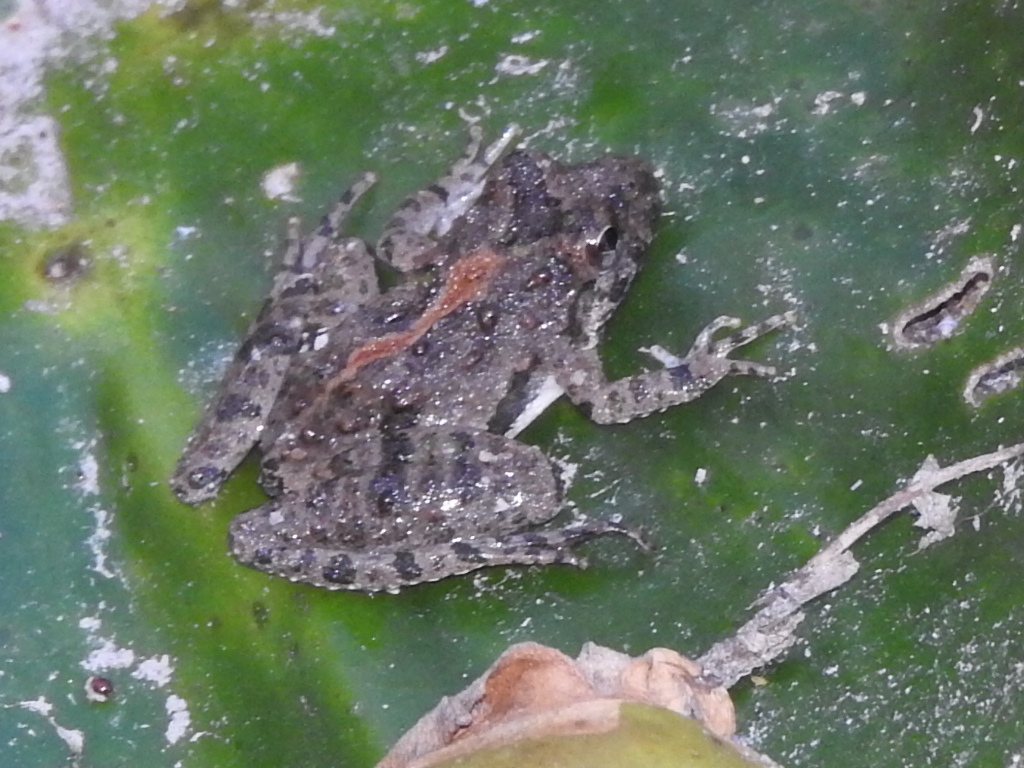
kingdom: Animalia
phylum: Chordata
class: Amphibia
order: Anura
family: Hylidae
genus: Acris
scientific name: Acris blanchardi
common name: Blanchard's cricket frog
